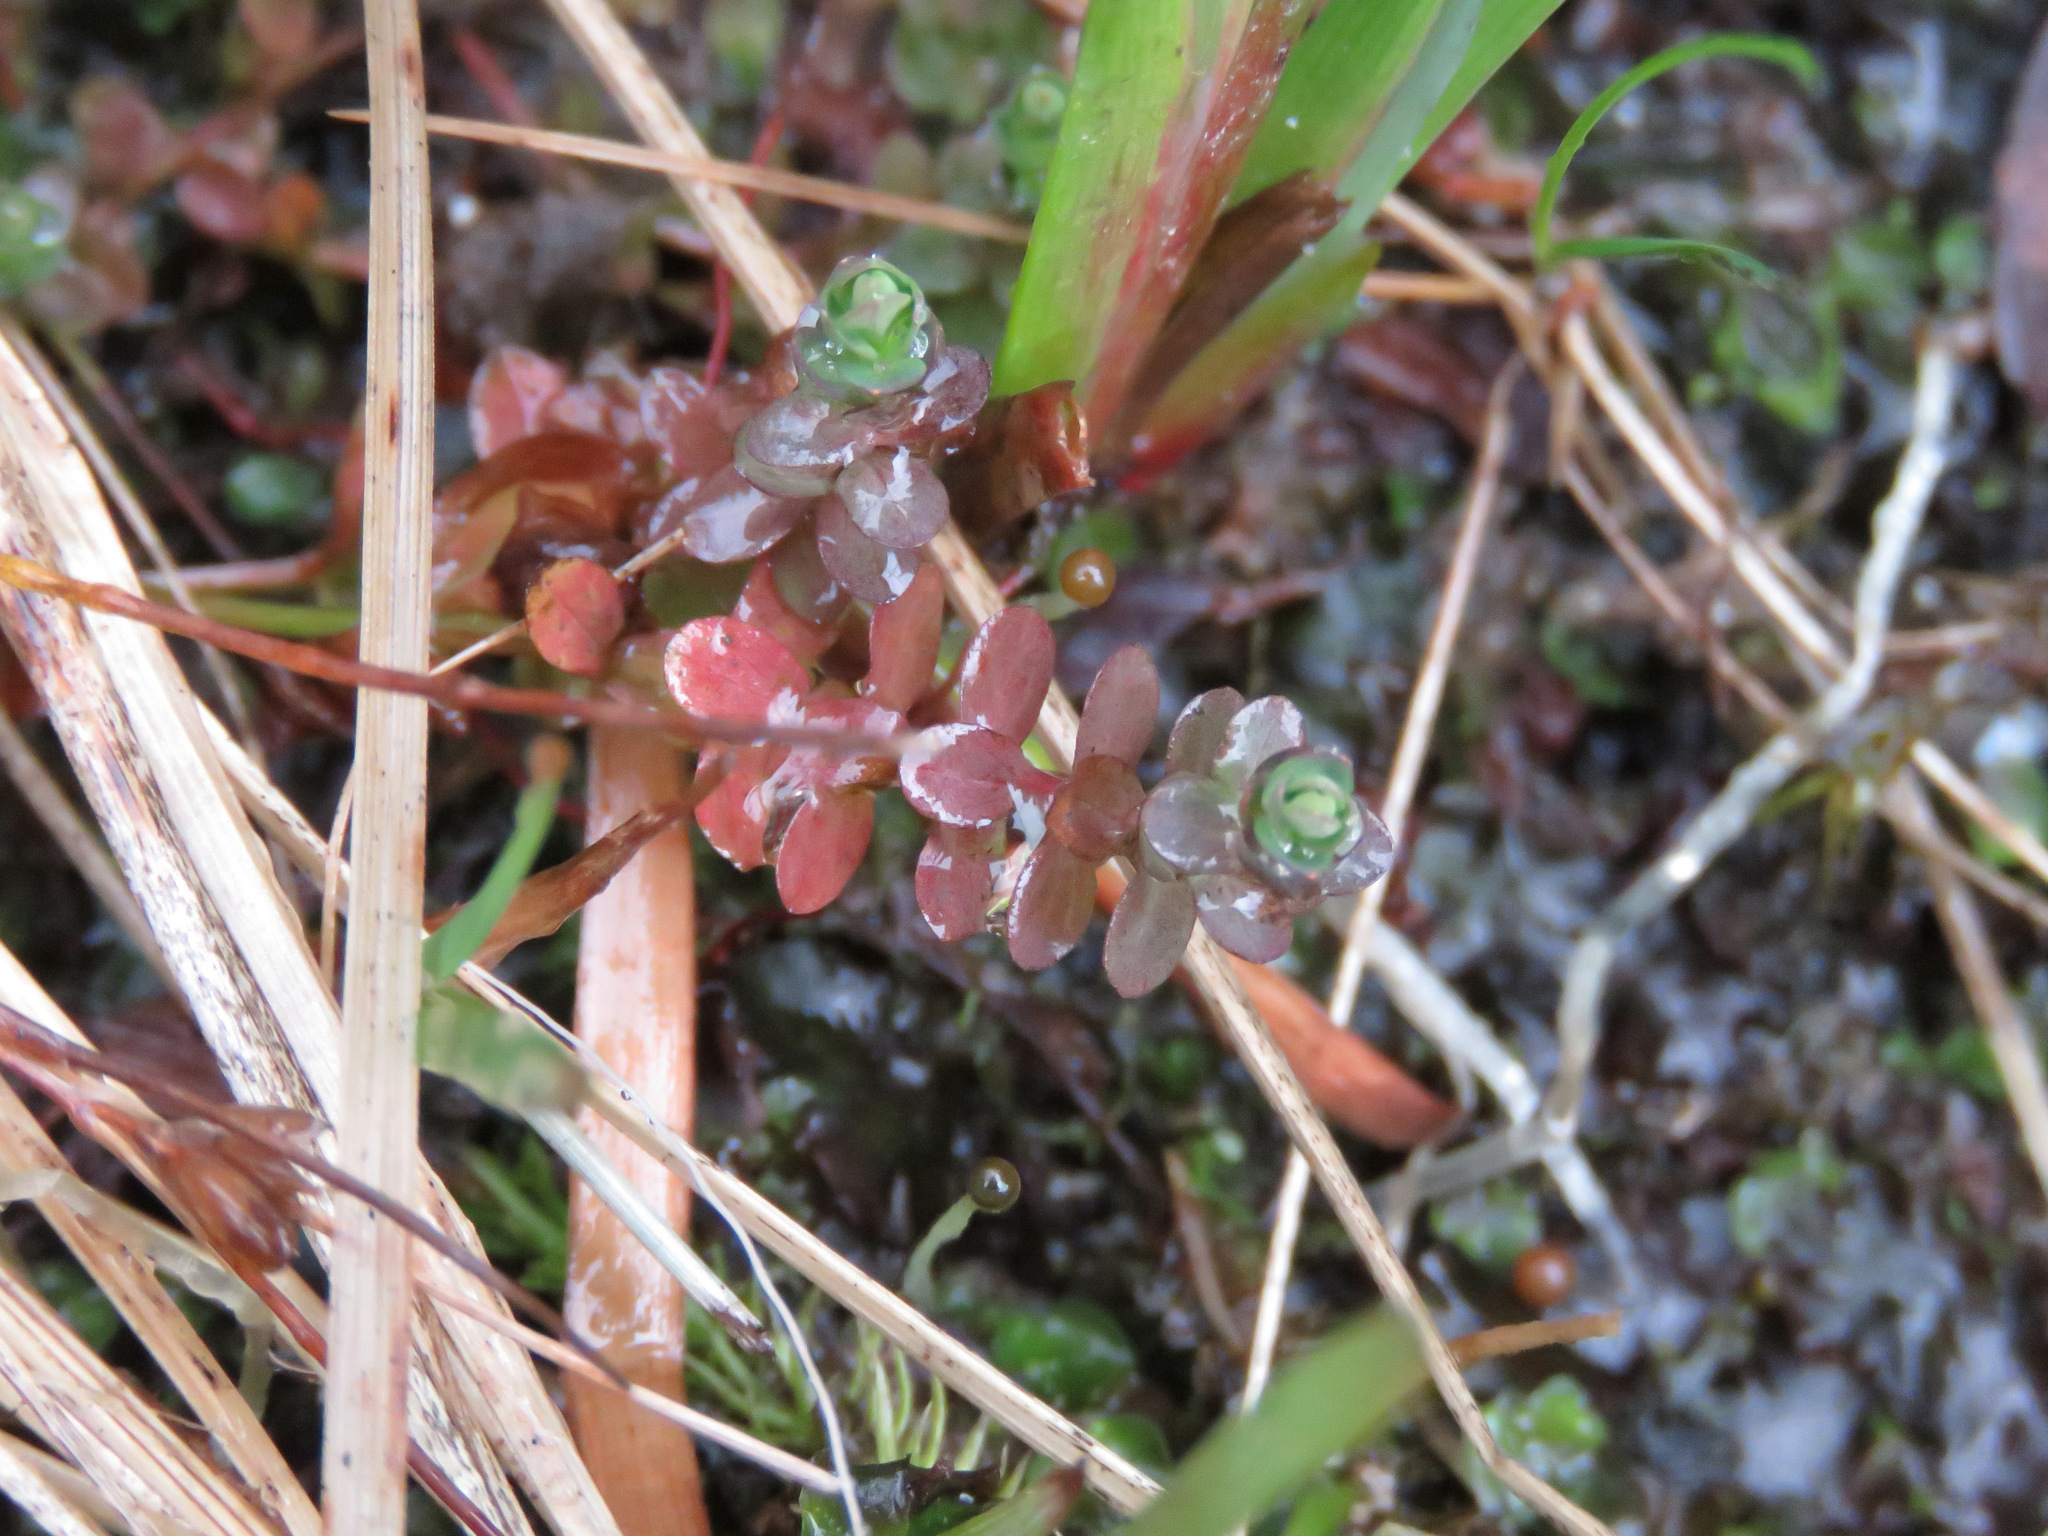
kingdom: Plantae
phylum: Tracheophyta
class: Magnoliopsida
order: Malpighiales
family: Hypericaceae
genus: Hypericum
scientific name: Hypericum anagalloides
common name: Bog st. john's-wort
